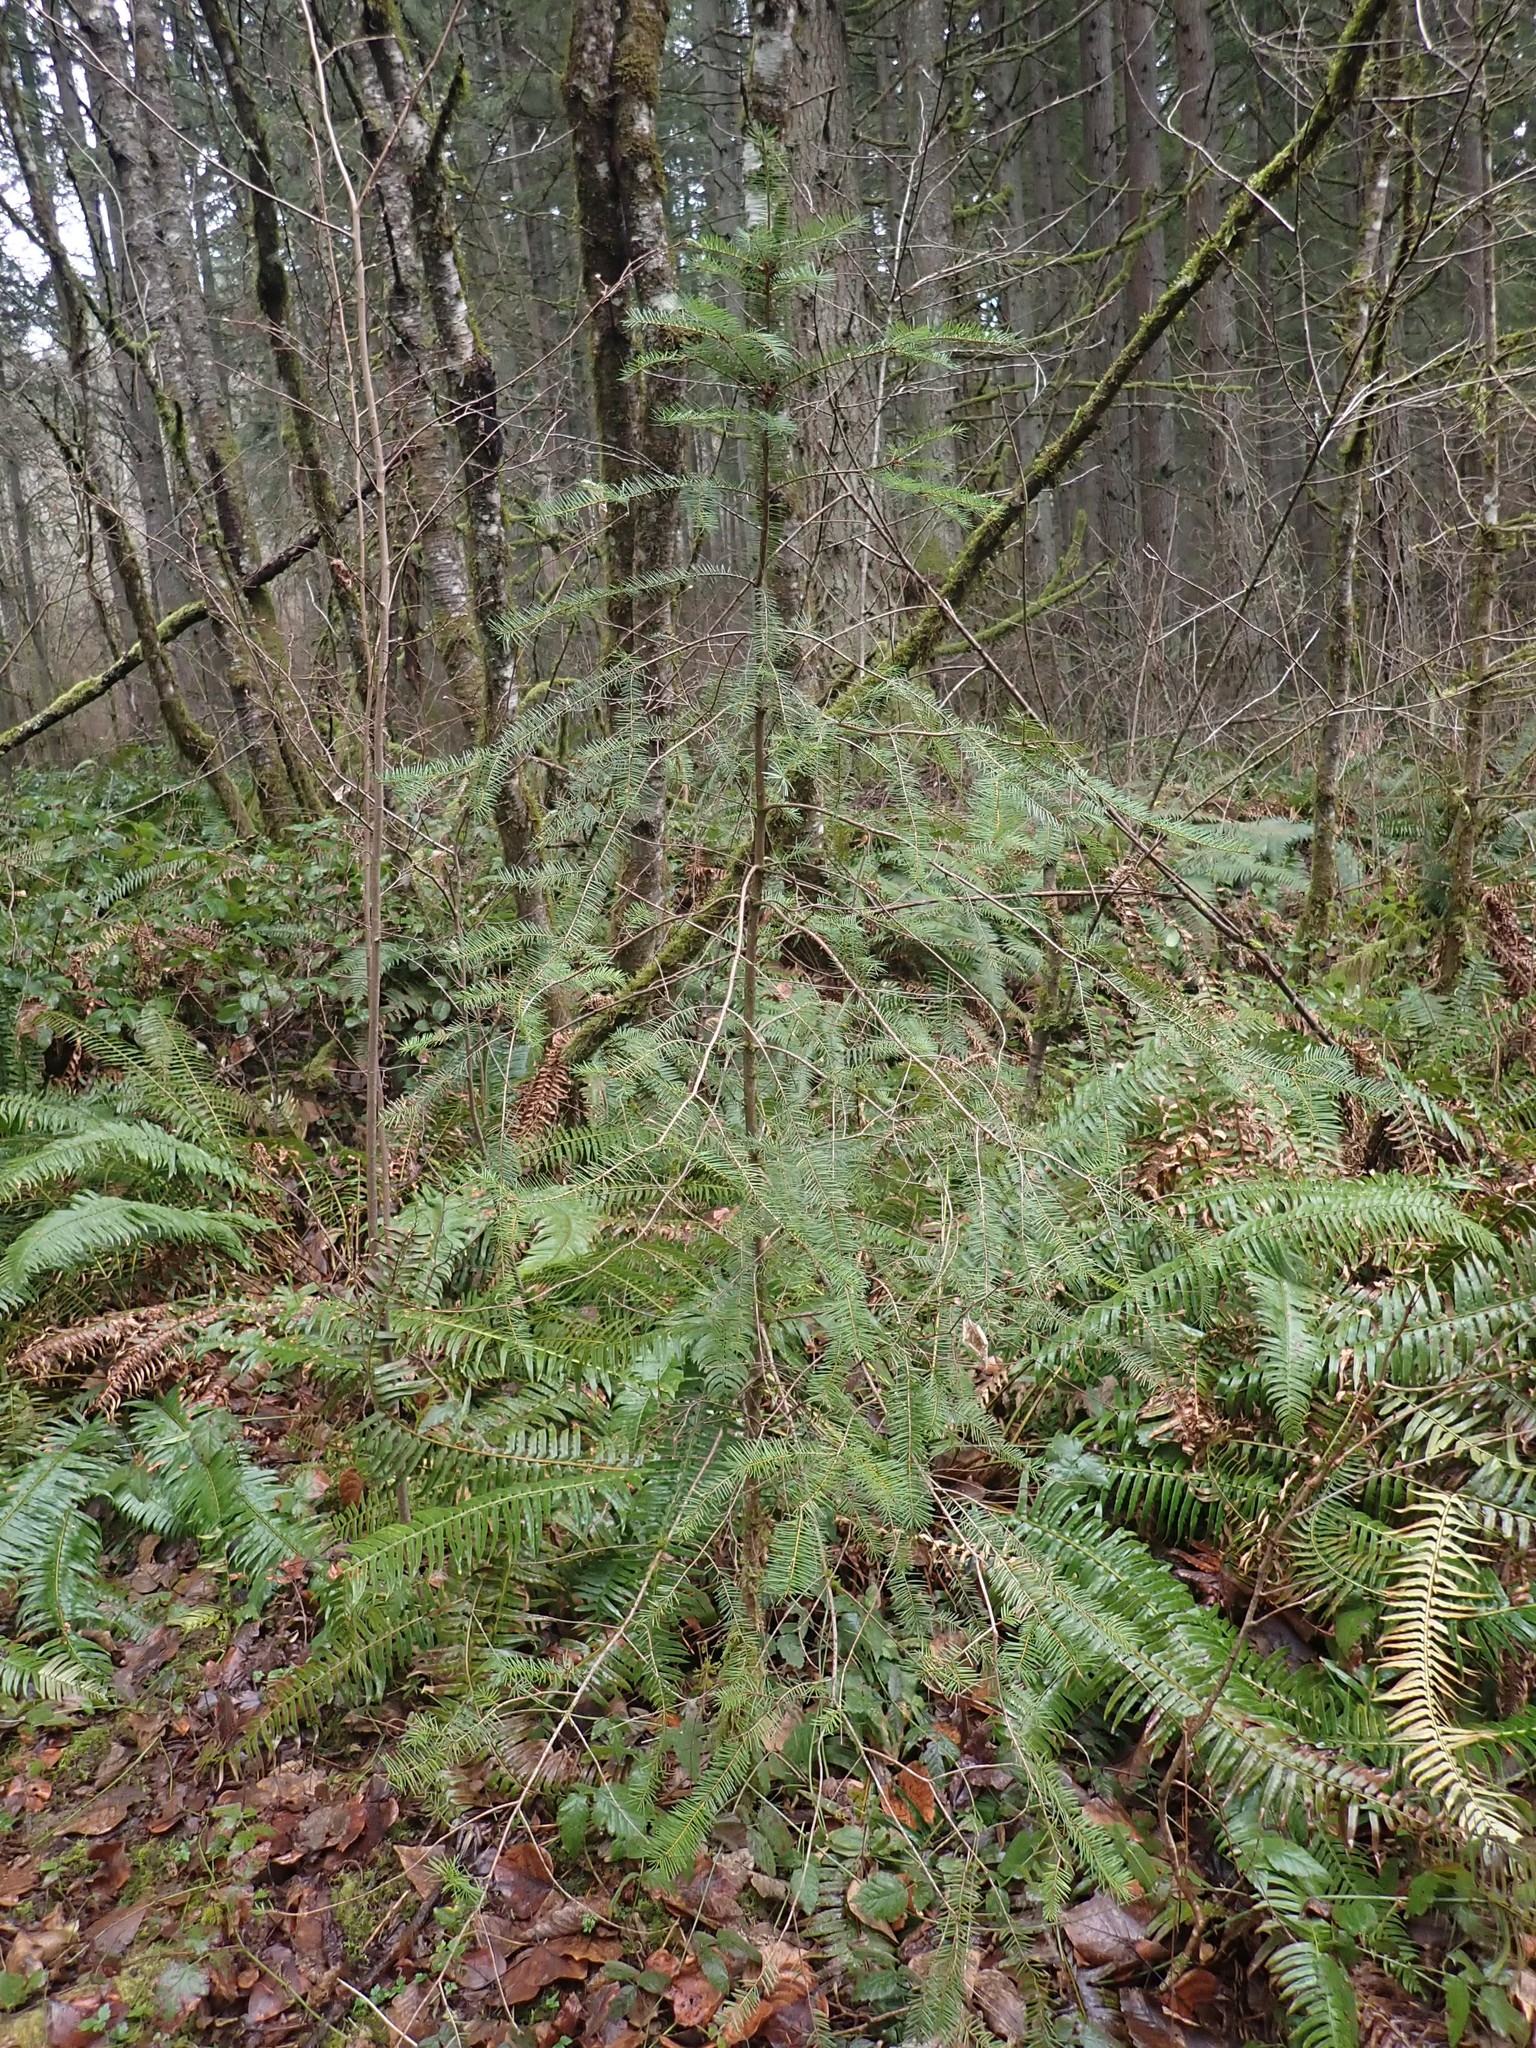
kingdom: Plantae
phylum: Tracheophyta
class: Pinopsida
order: Pinales
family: Pinaceae
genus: Pseudotsuga
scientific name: Pseudotsuga menziesii
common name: Douglas fir
